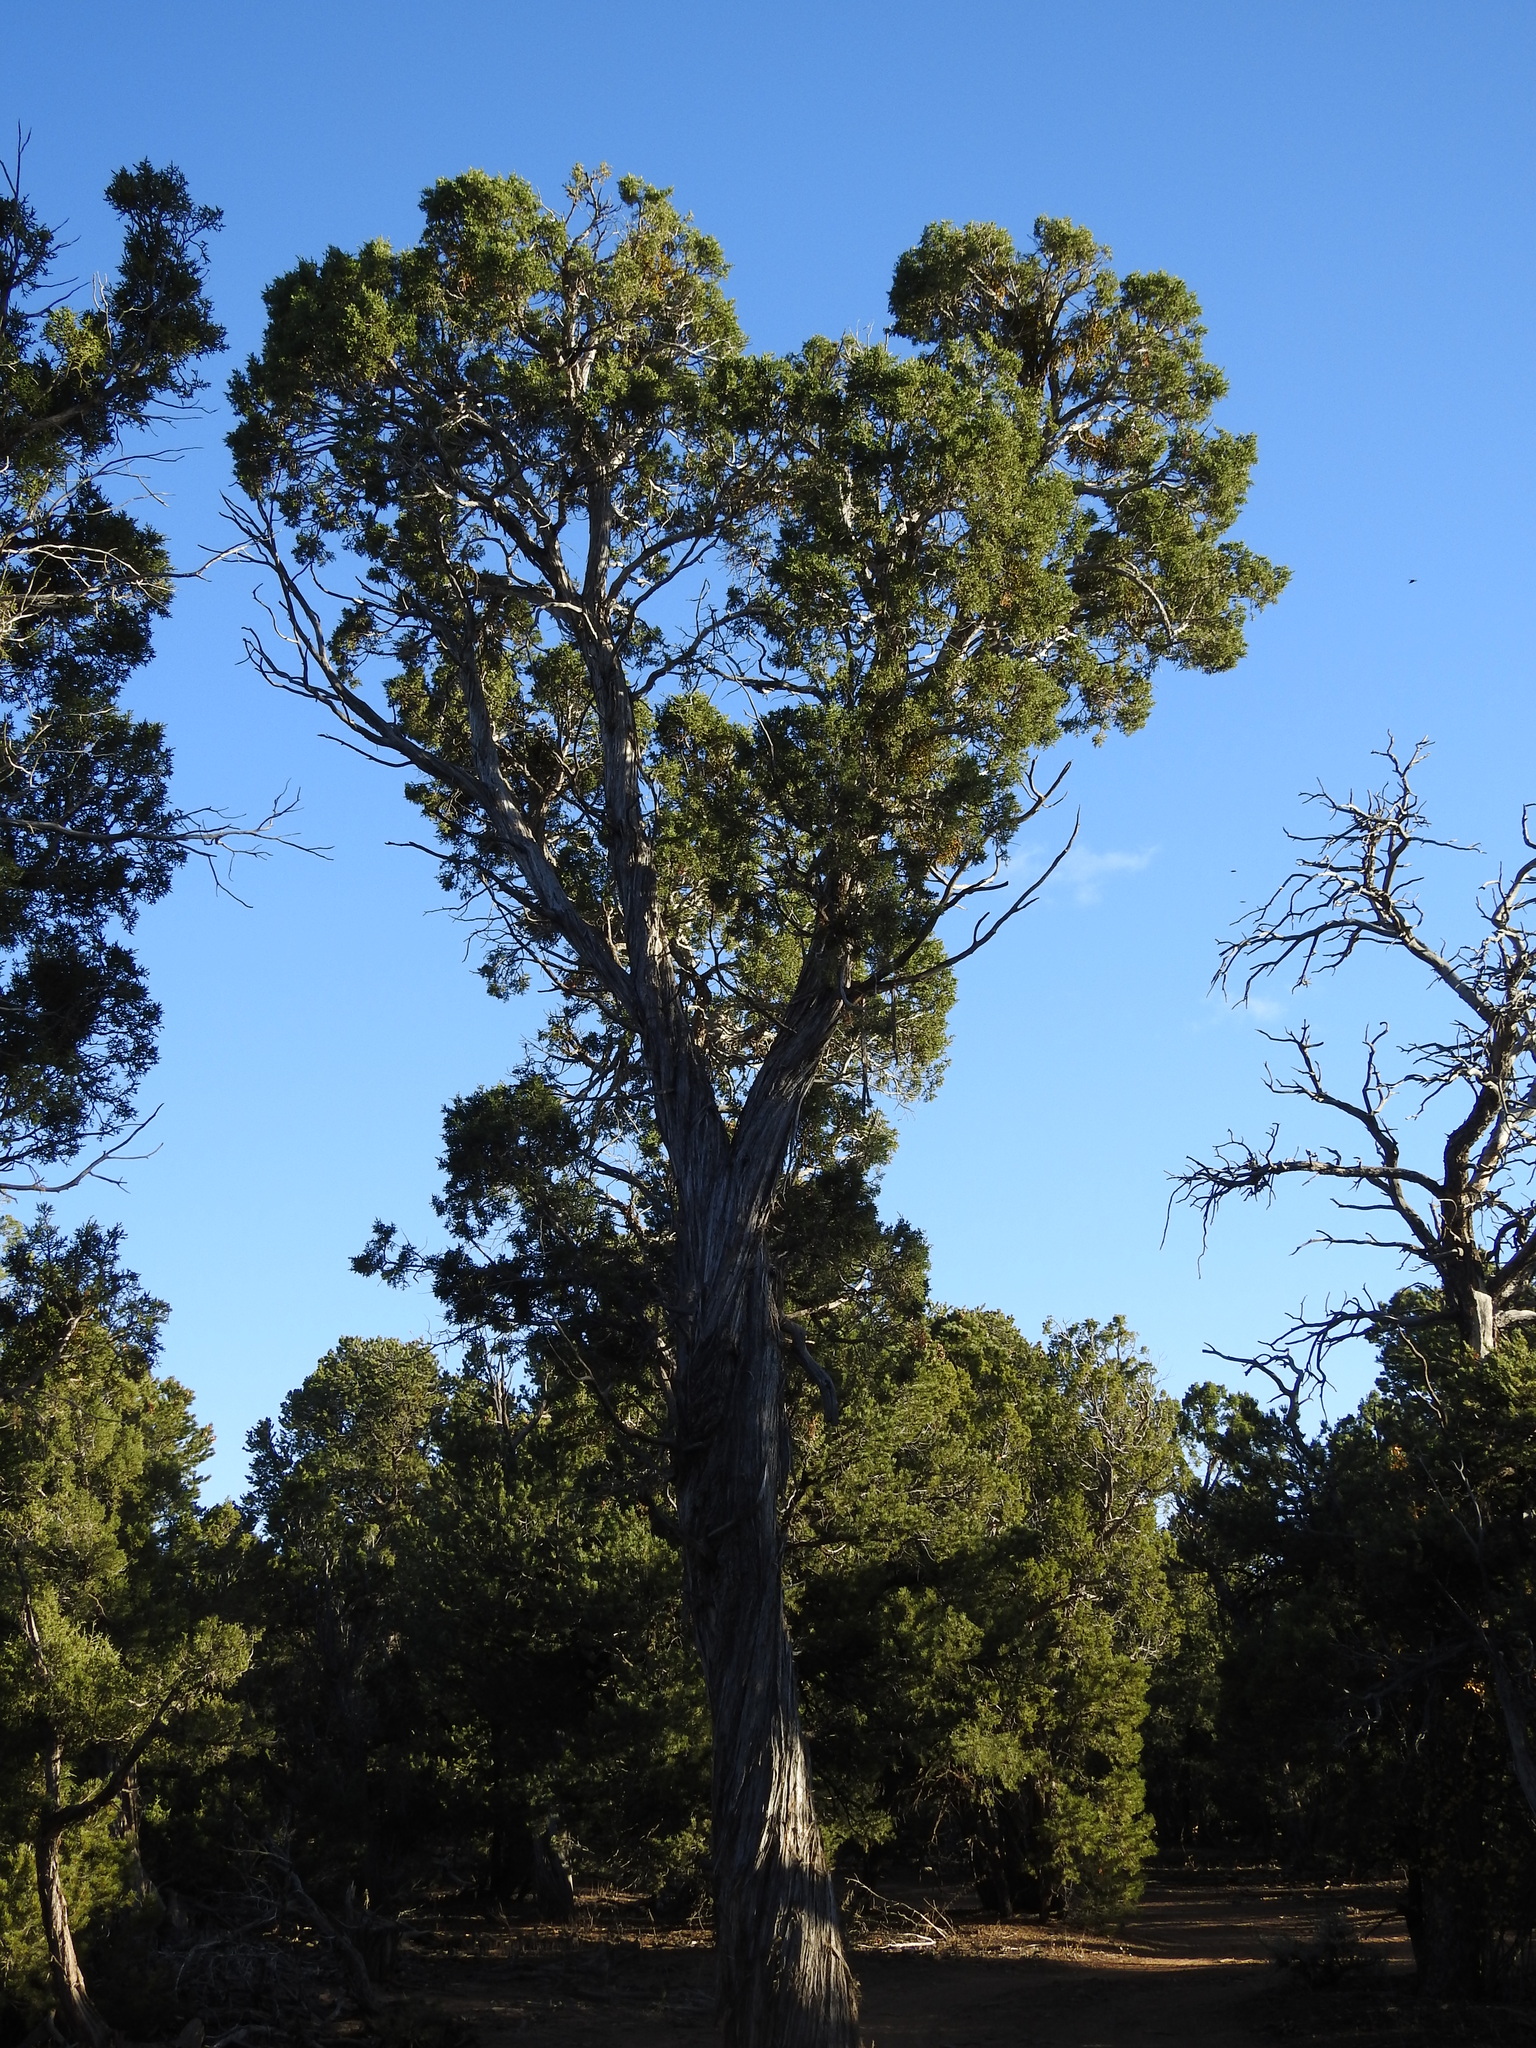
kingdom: Plantae
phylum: Tracheophyta
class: Pinopsida
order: Pinales
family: Cupressaceae
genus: Juniperus
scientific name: Juniperus osteosperma
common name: Utah juniper
